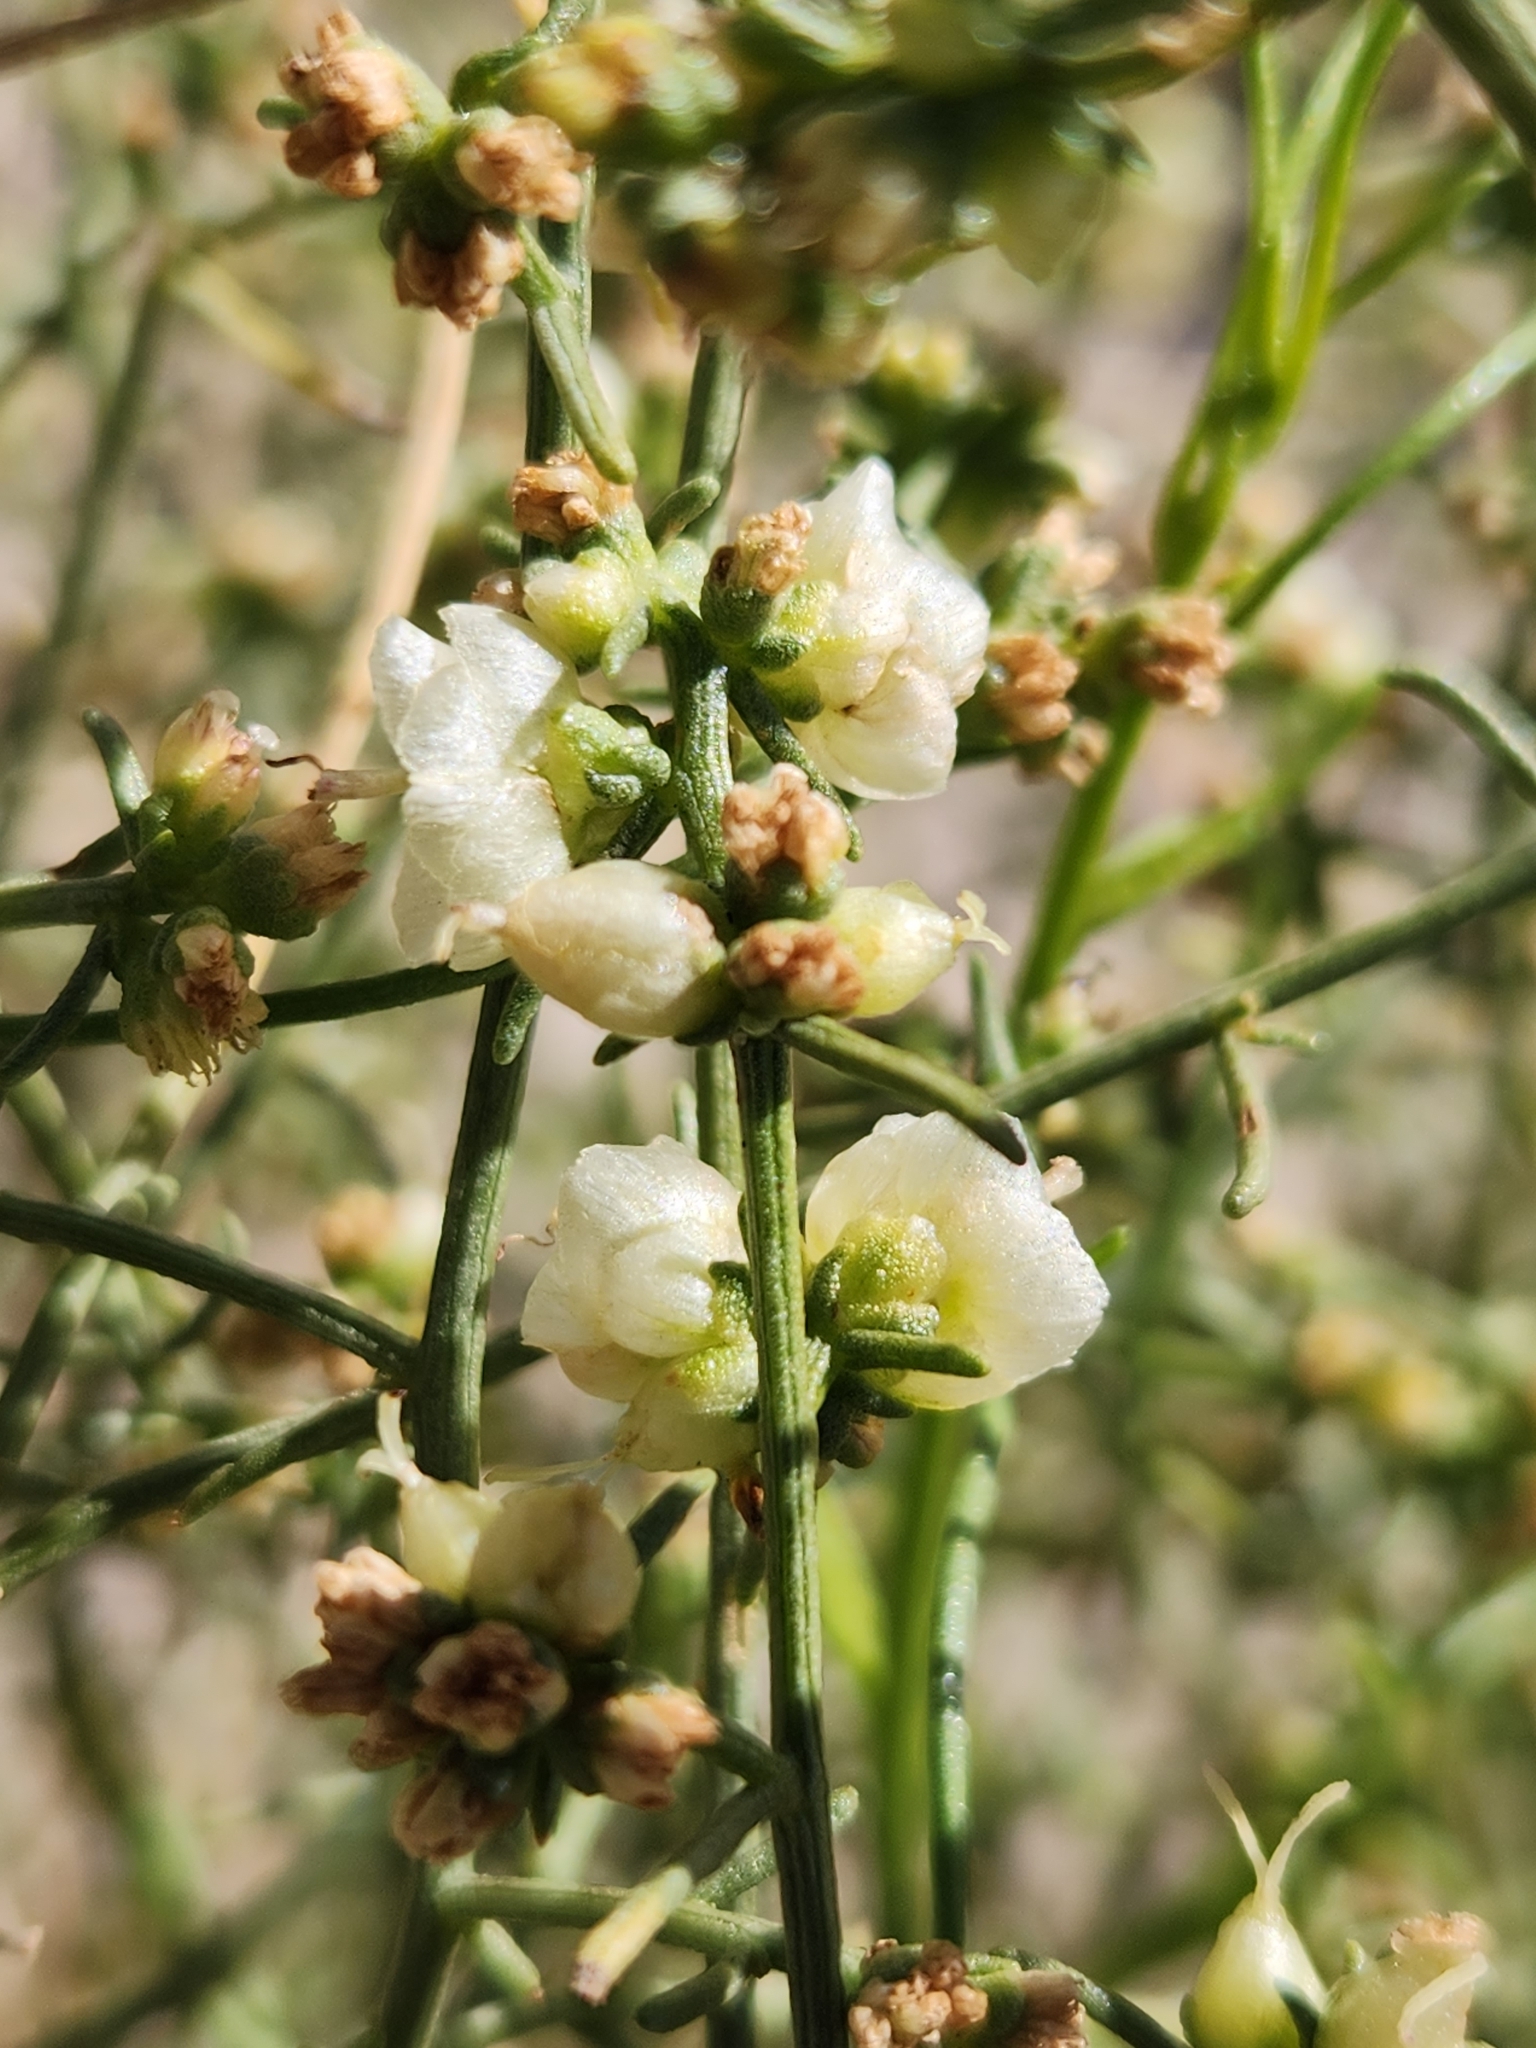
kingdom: Plantae
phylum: Tracheophyta
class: Magnoliopsida
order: Asterales
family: Asteraceae
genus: Ambrosia
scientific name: Ambrosia salsola
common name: Burrobrush
